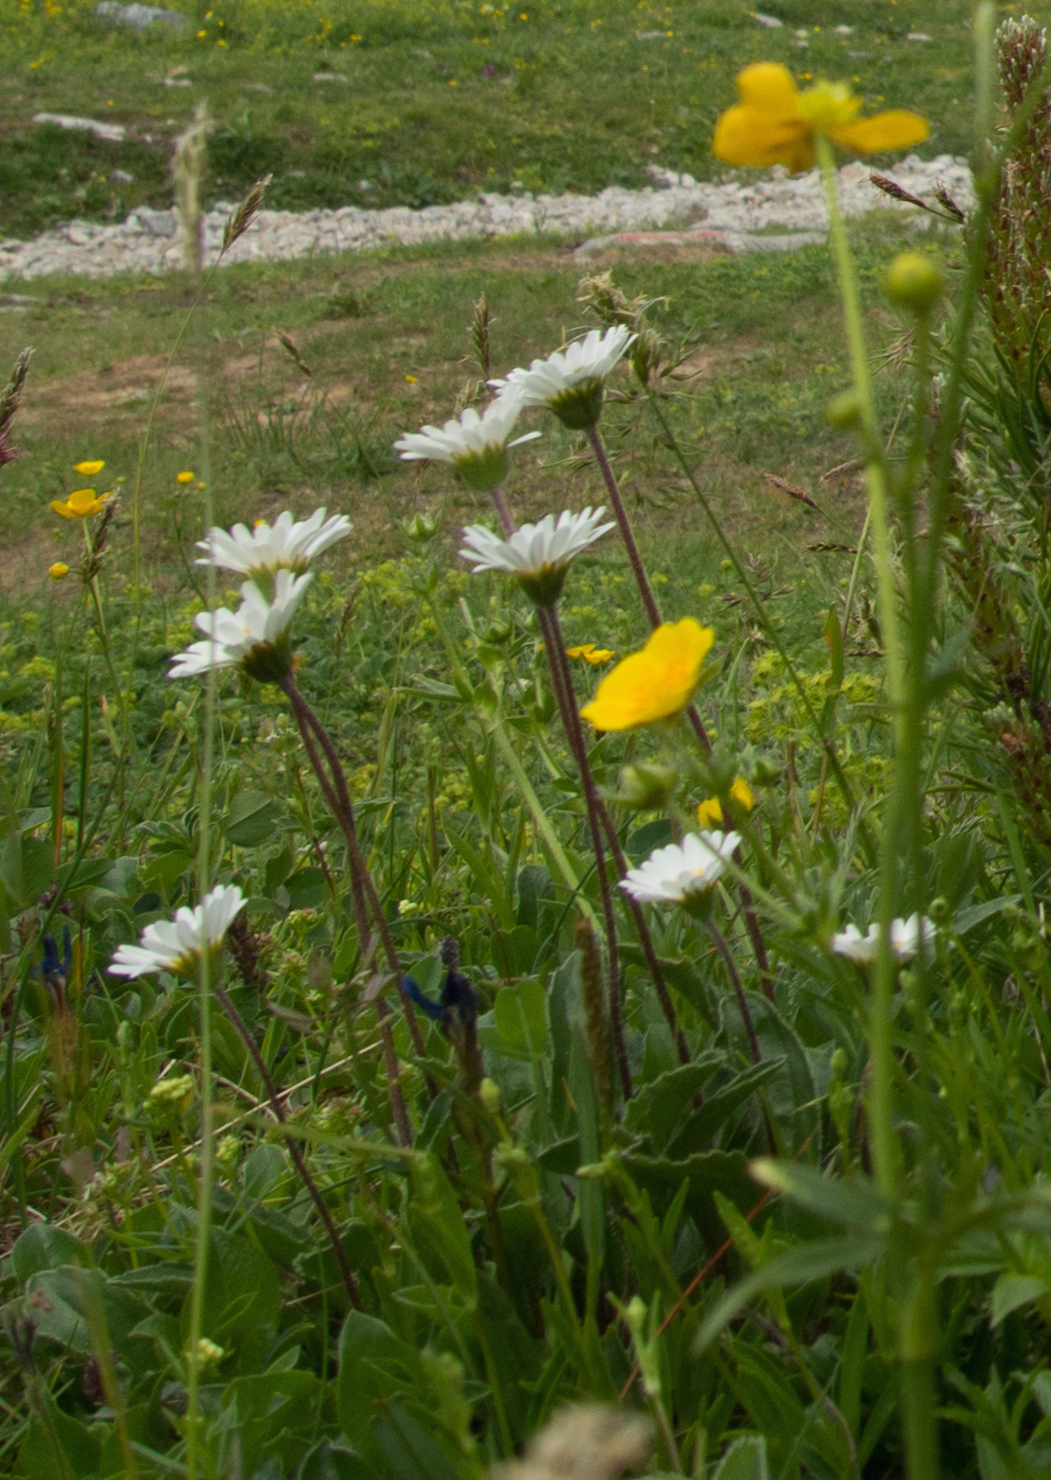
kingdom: Plantae
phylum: Tracheophyta
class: Magnoliopsida
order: Asterales
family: Asteraceae
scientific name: Asteraceae
